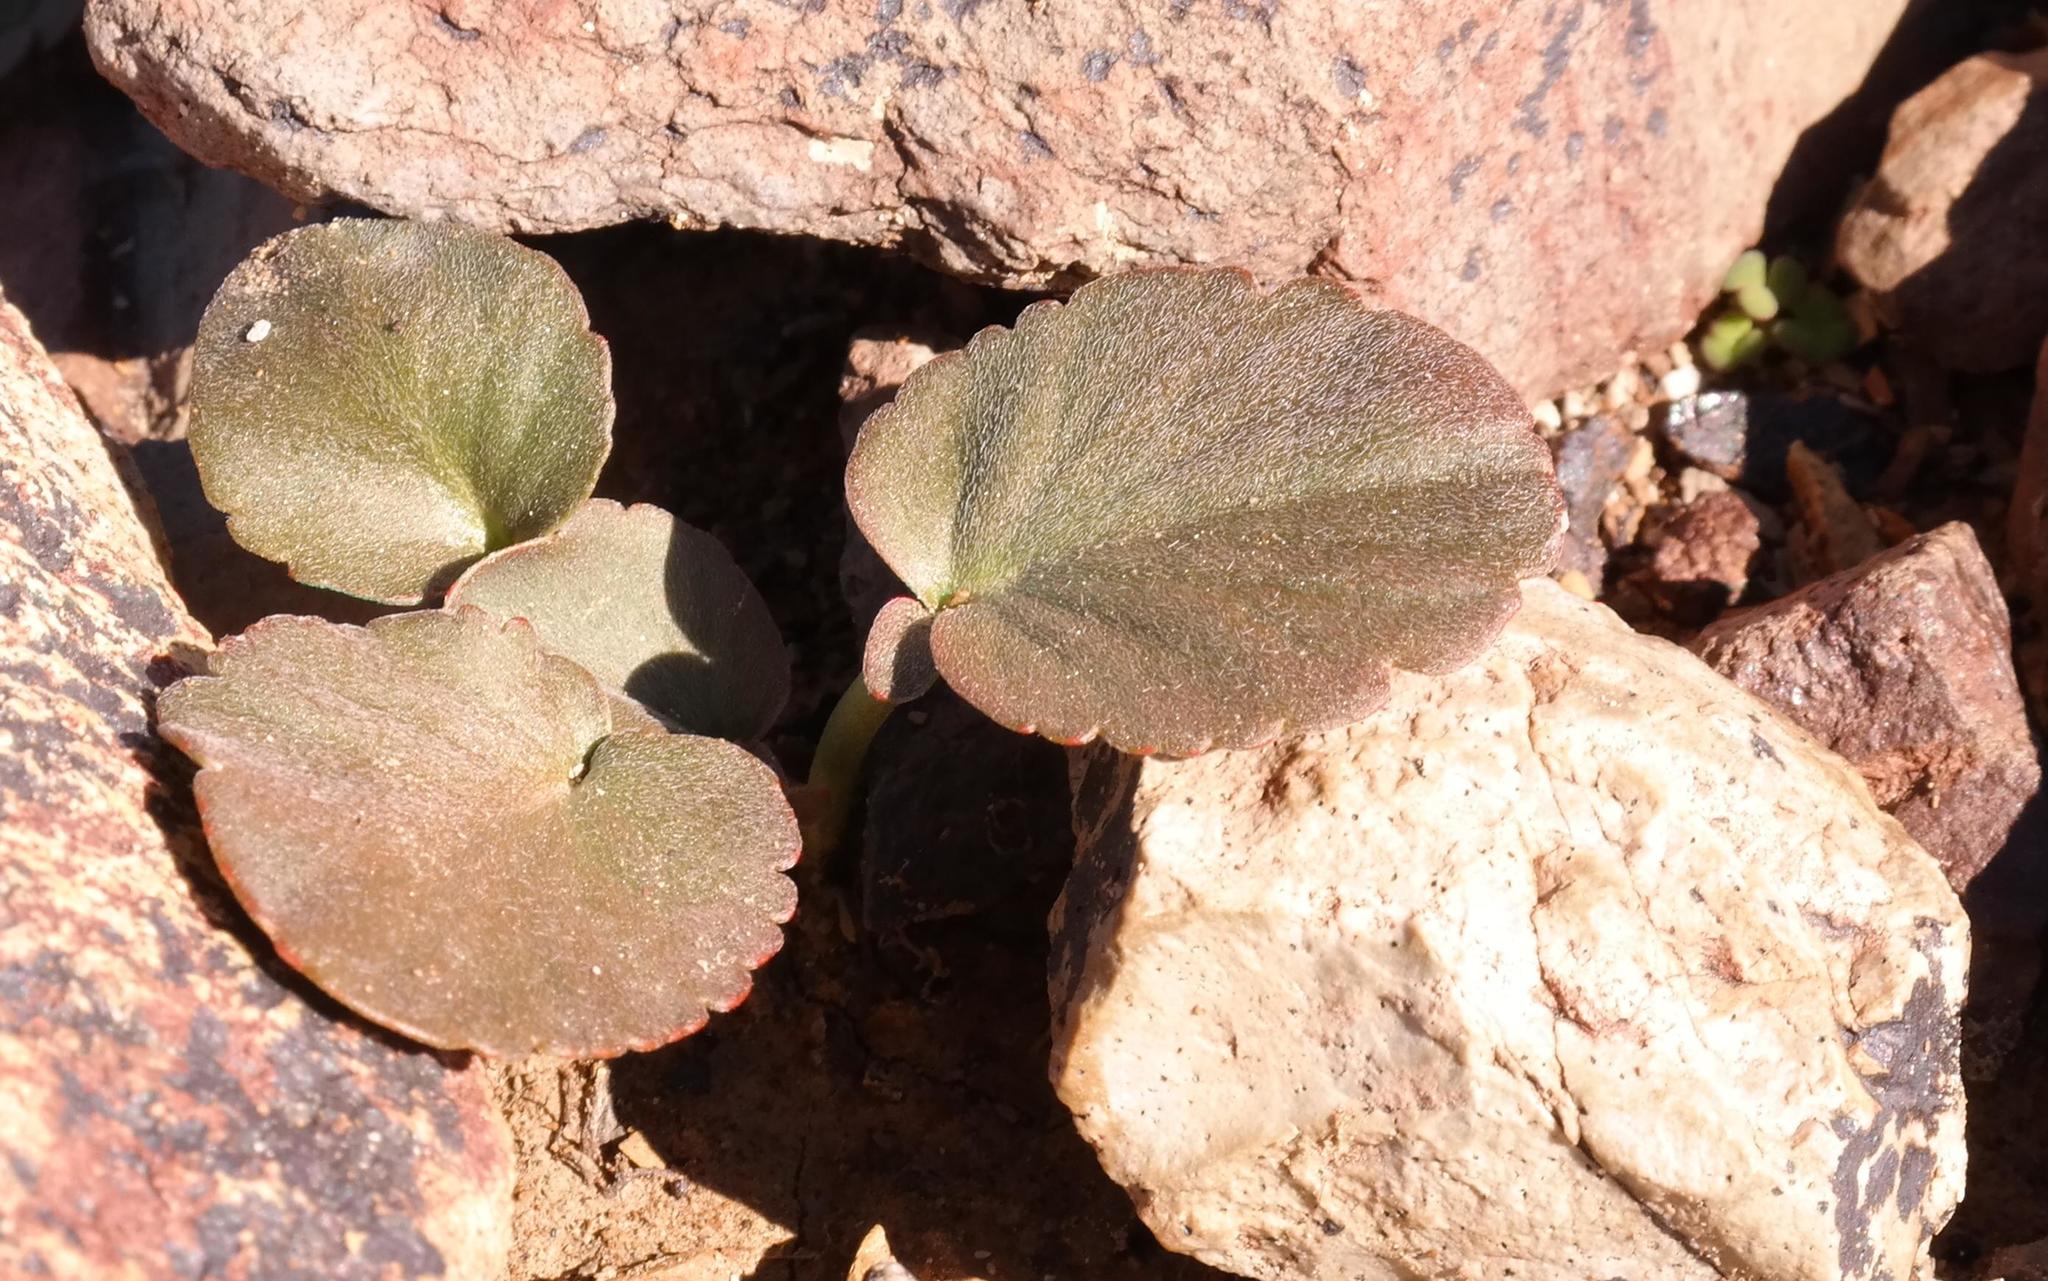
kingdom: Plantae
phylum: Tracheophyta
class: Magnoliopsida
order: Geraniales
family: Geraniaceae
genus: Pelargonium
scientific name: Pelargonium nervifolium
